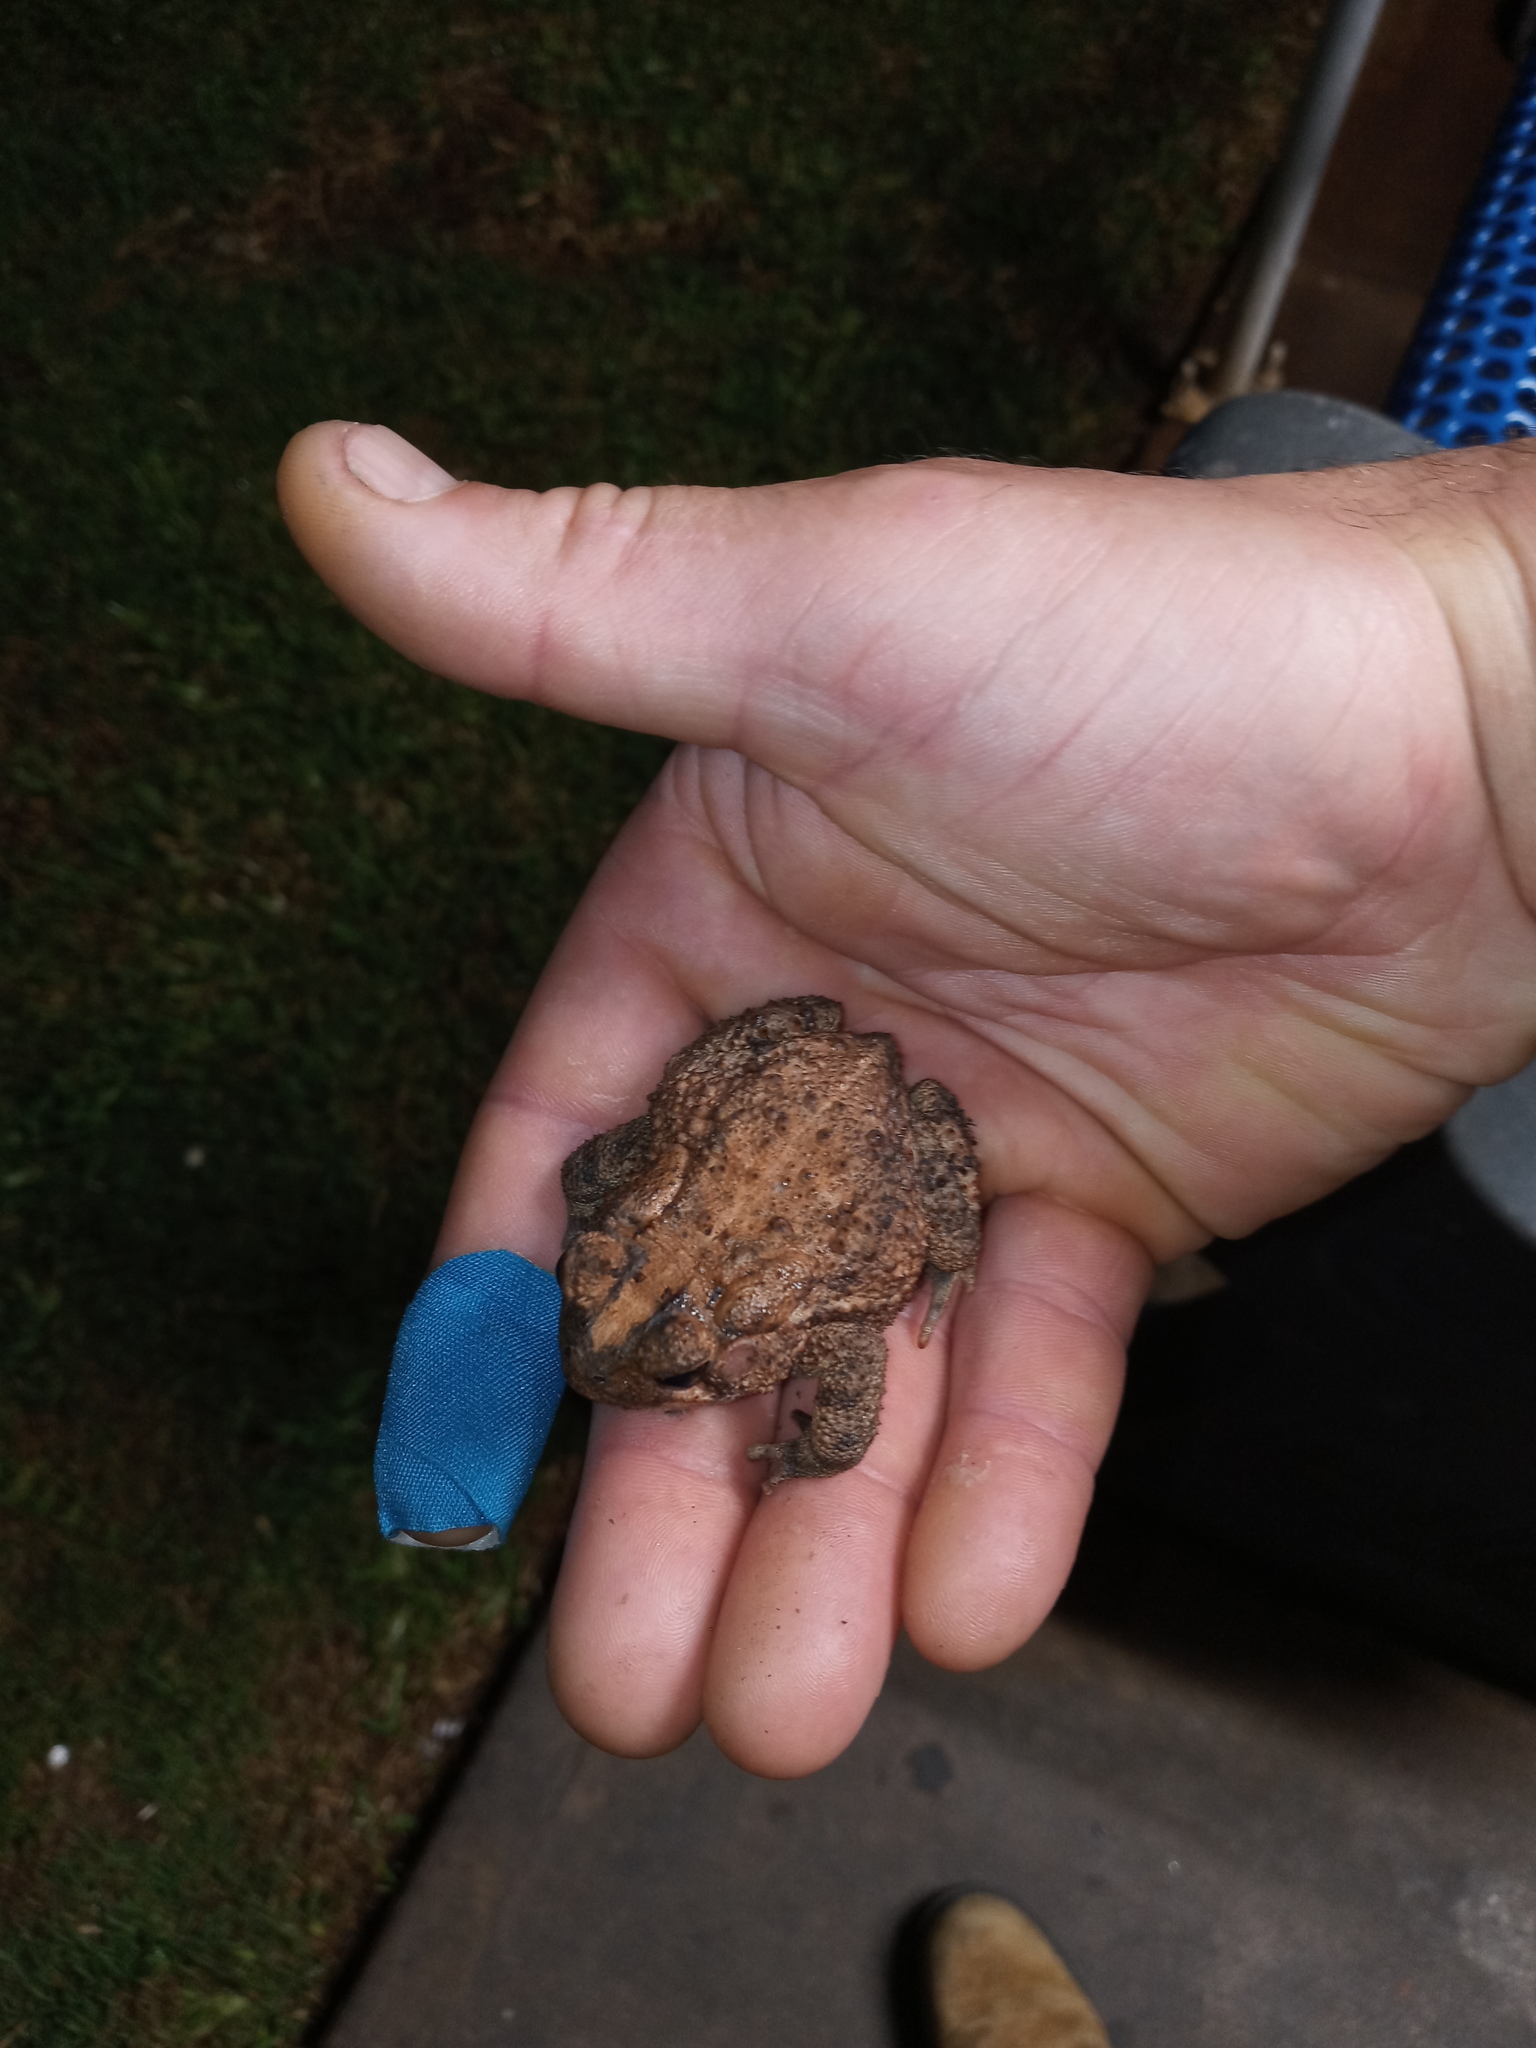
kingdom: Animalia
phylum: Chordata
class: Amphibia
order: Anura
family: Bufonidae
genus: Anaxyrus
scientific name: Anaxyrus fowleri
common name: Fowler's toad
